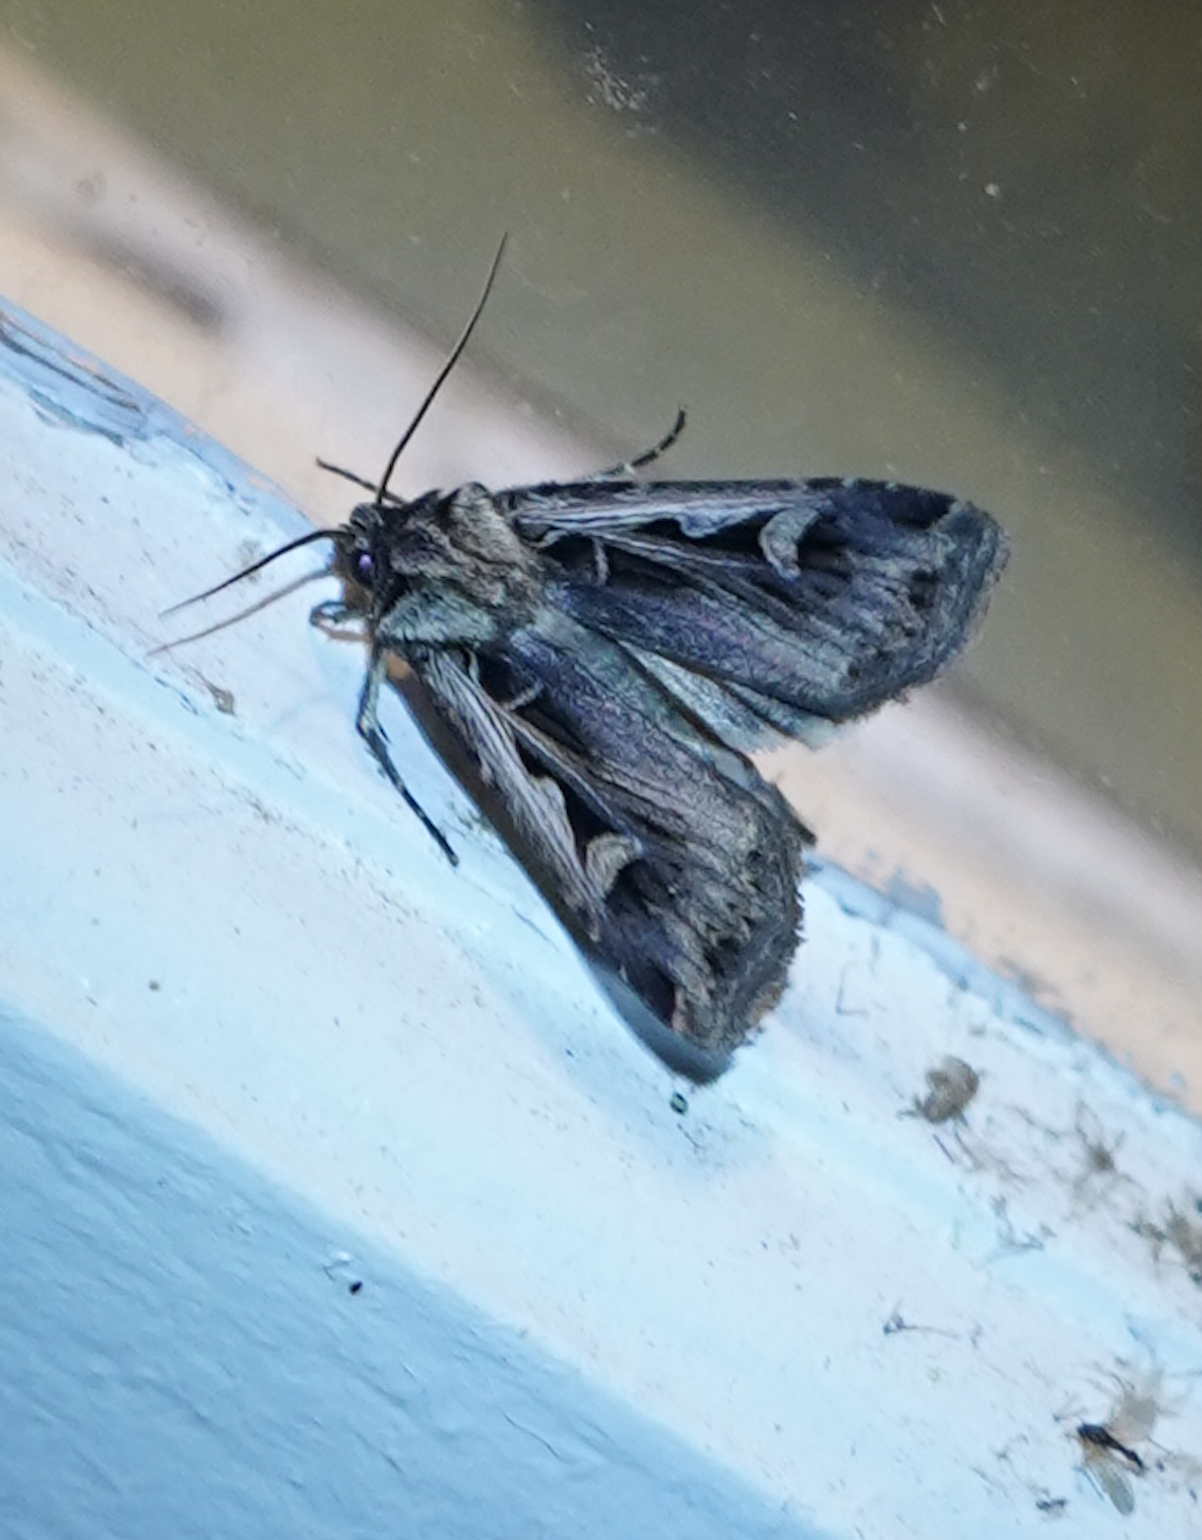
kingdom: Animalia
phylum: Arthropoda
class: Insecta
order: Lepidoptera
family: Noctuidae
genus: Feltia
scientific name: Feltia
